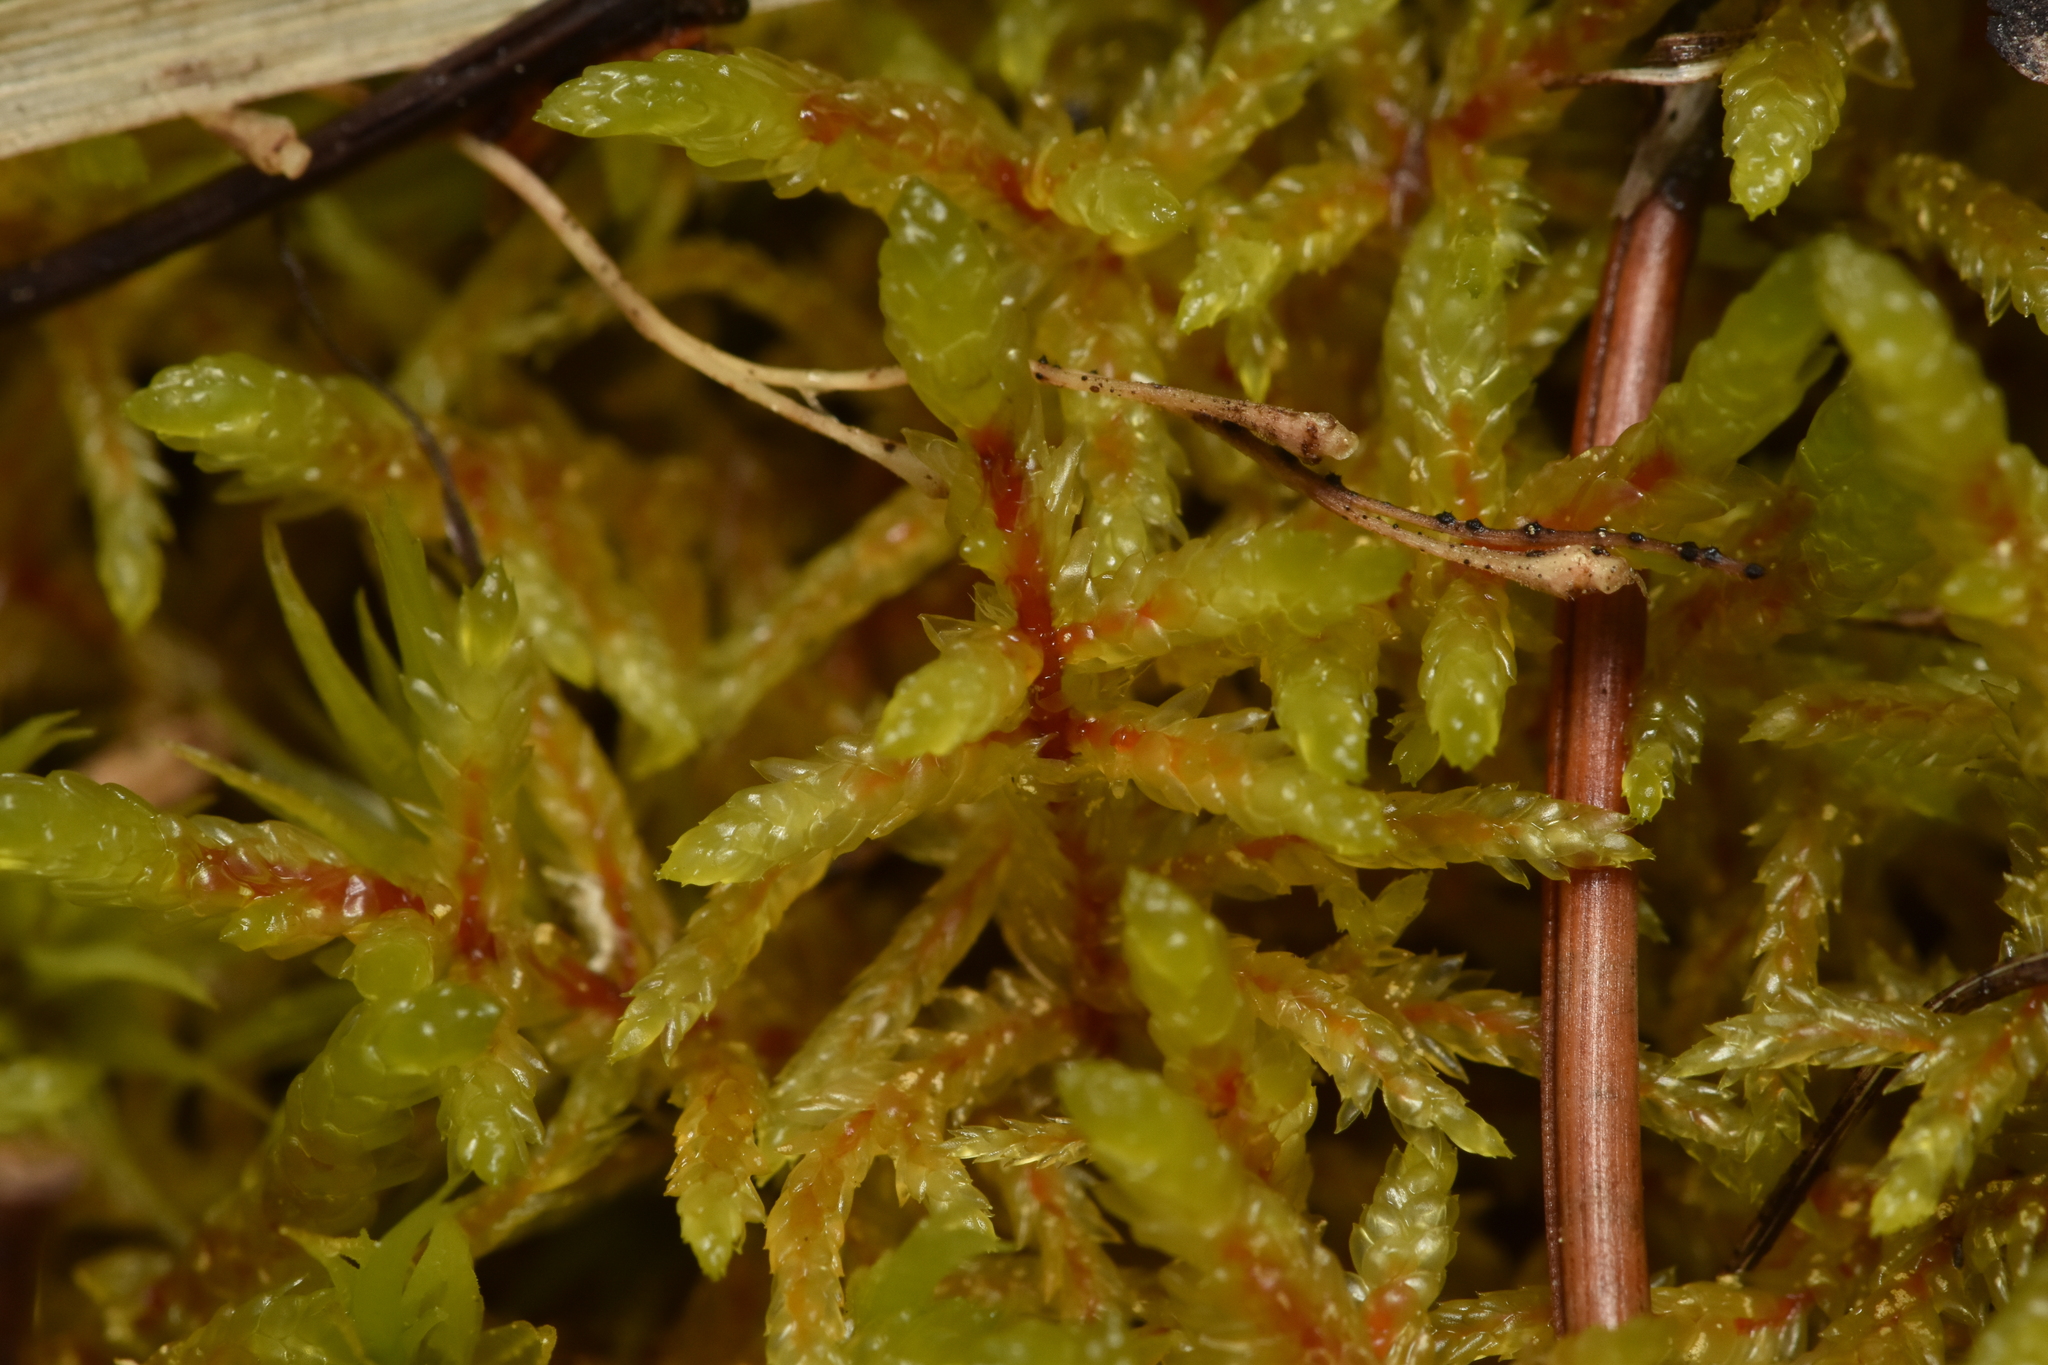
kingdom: Plantae
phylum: Bryophyta
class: Bryopsida
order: Hypnales
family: Hylocomiaceae
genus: Pleurozium
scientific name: Pleurozium schreberi
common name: Red-stemmed feather moss
